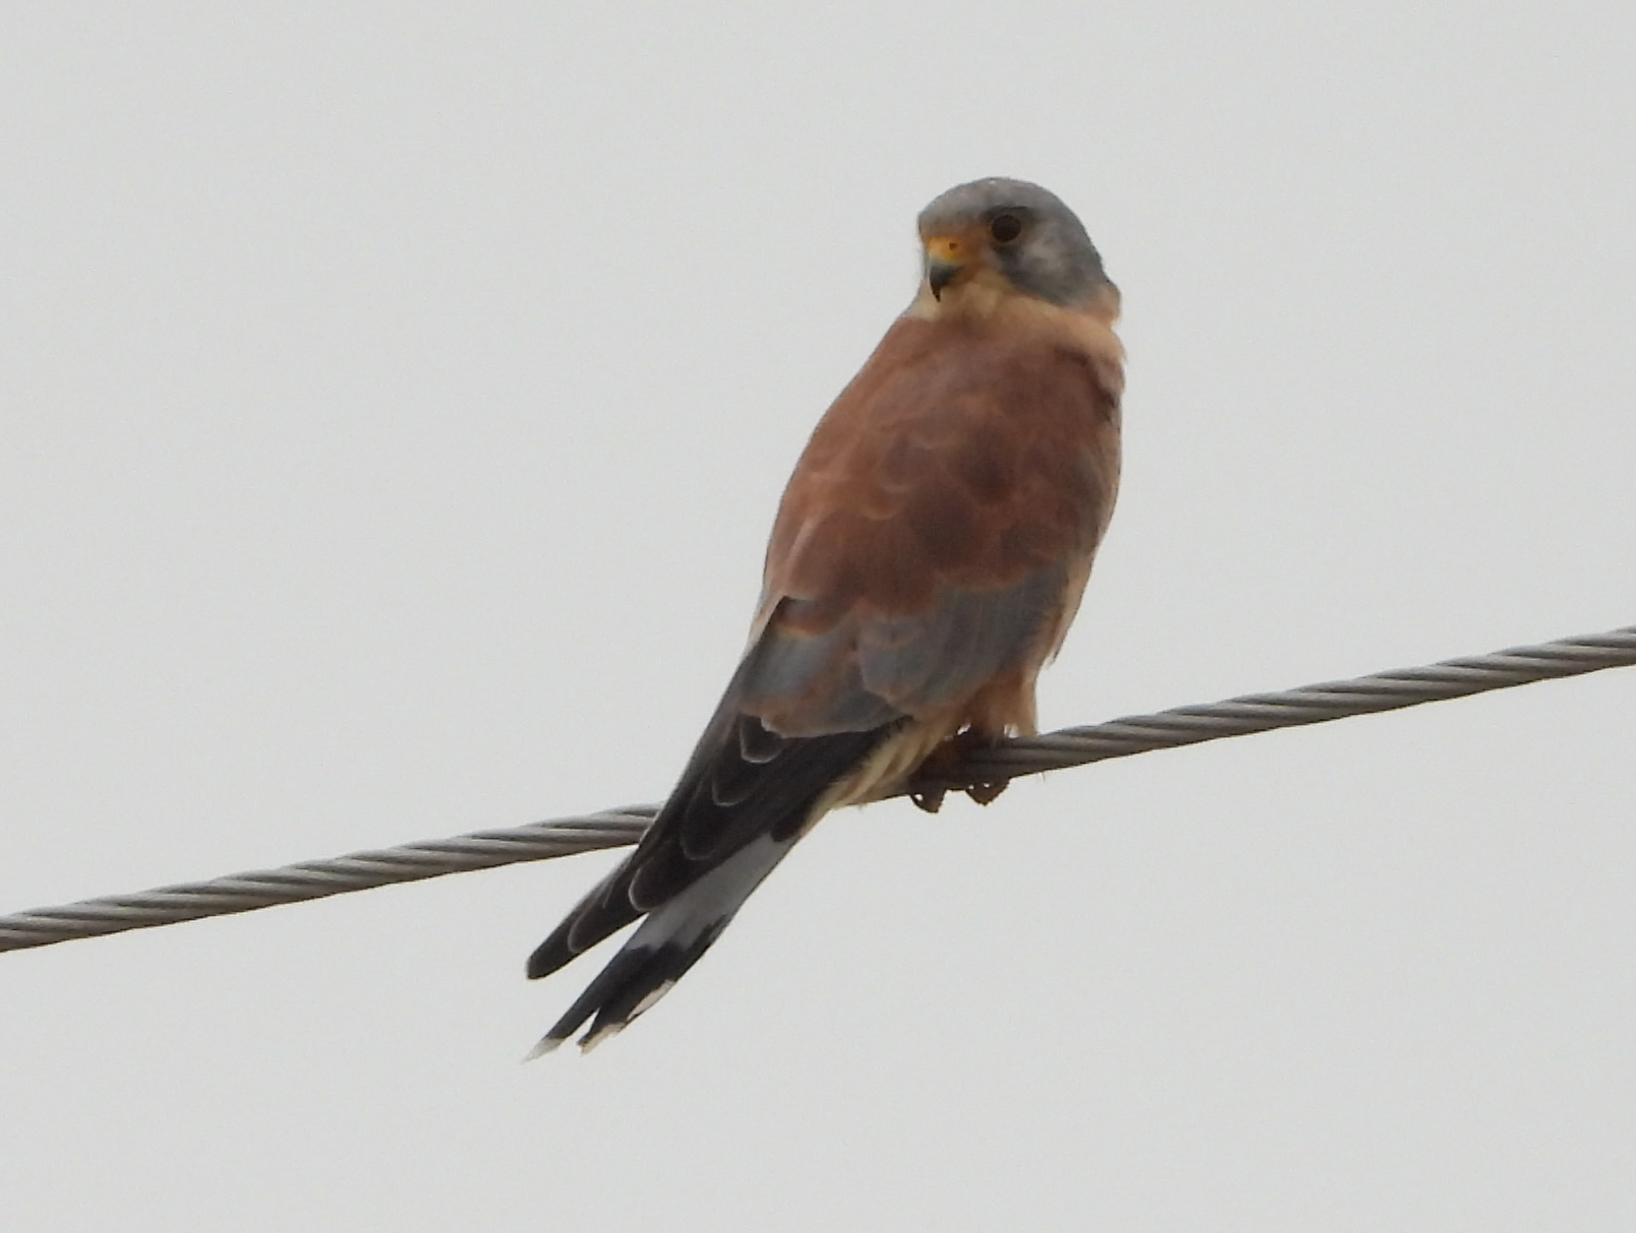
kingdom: Animalia
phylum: Chordata
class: Aves
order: Falconiformes
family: Falconidae
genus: Falco
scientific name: Falco naumanni
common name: Lesser kestrel
